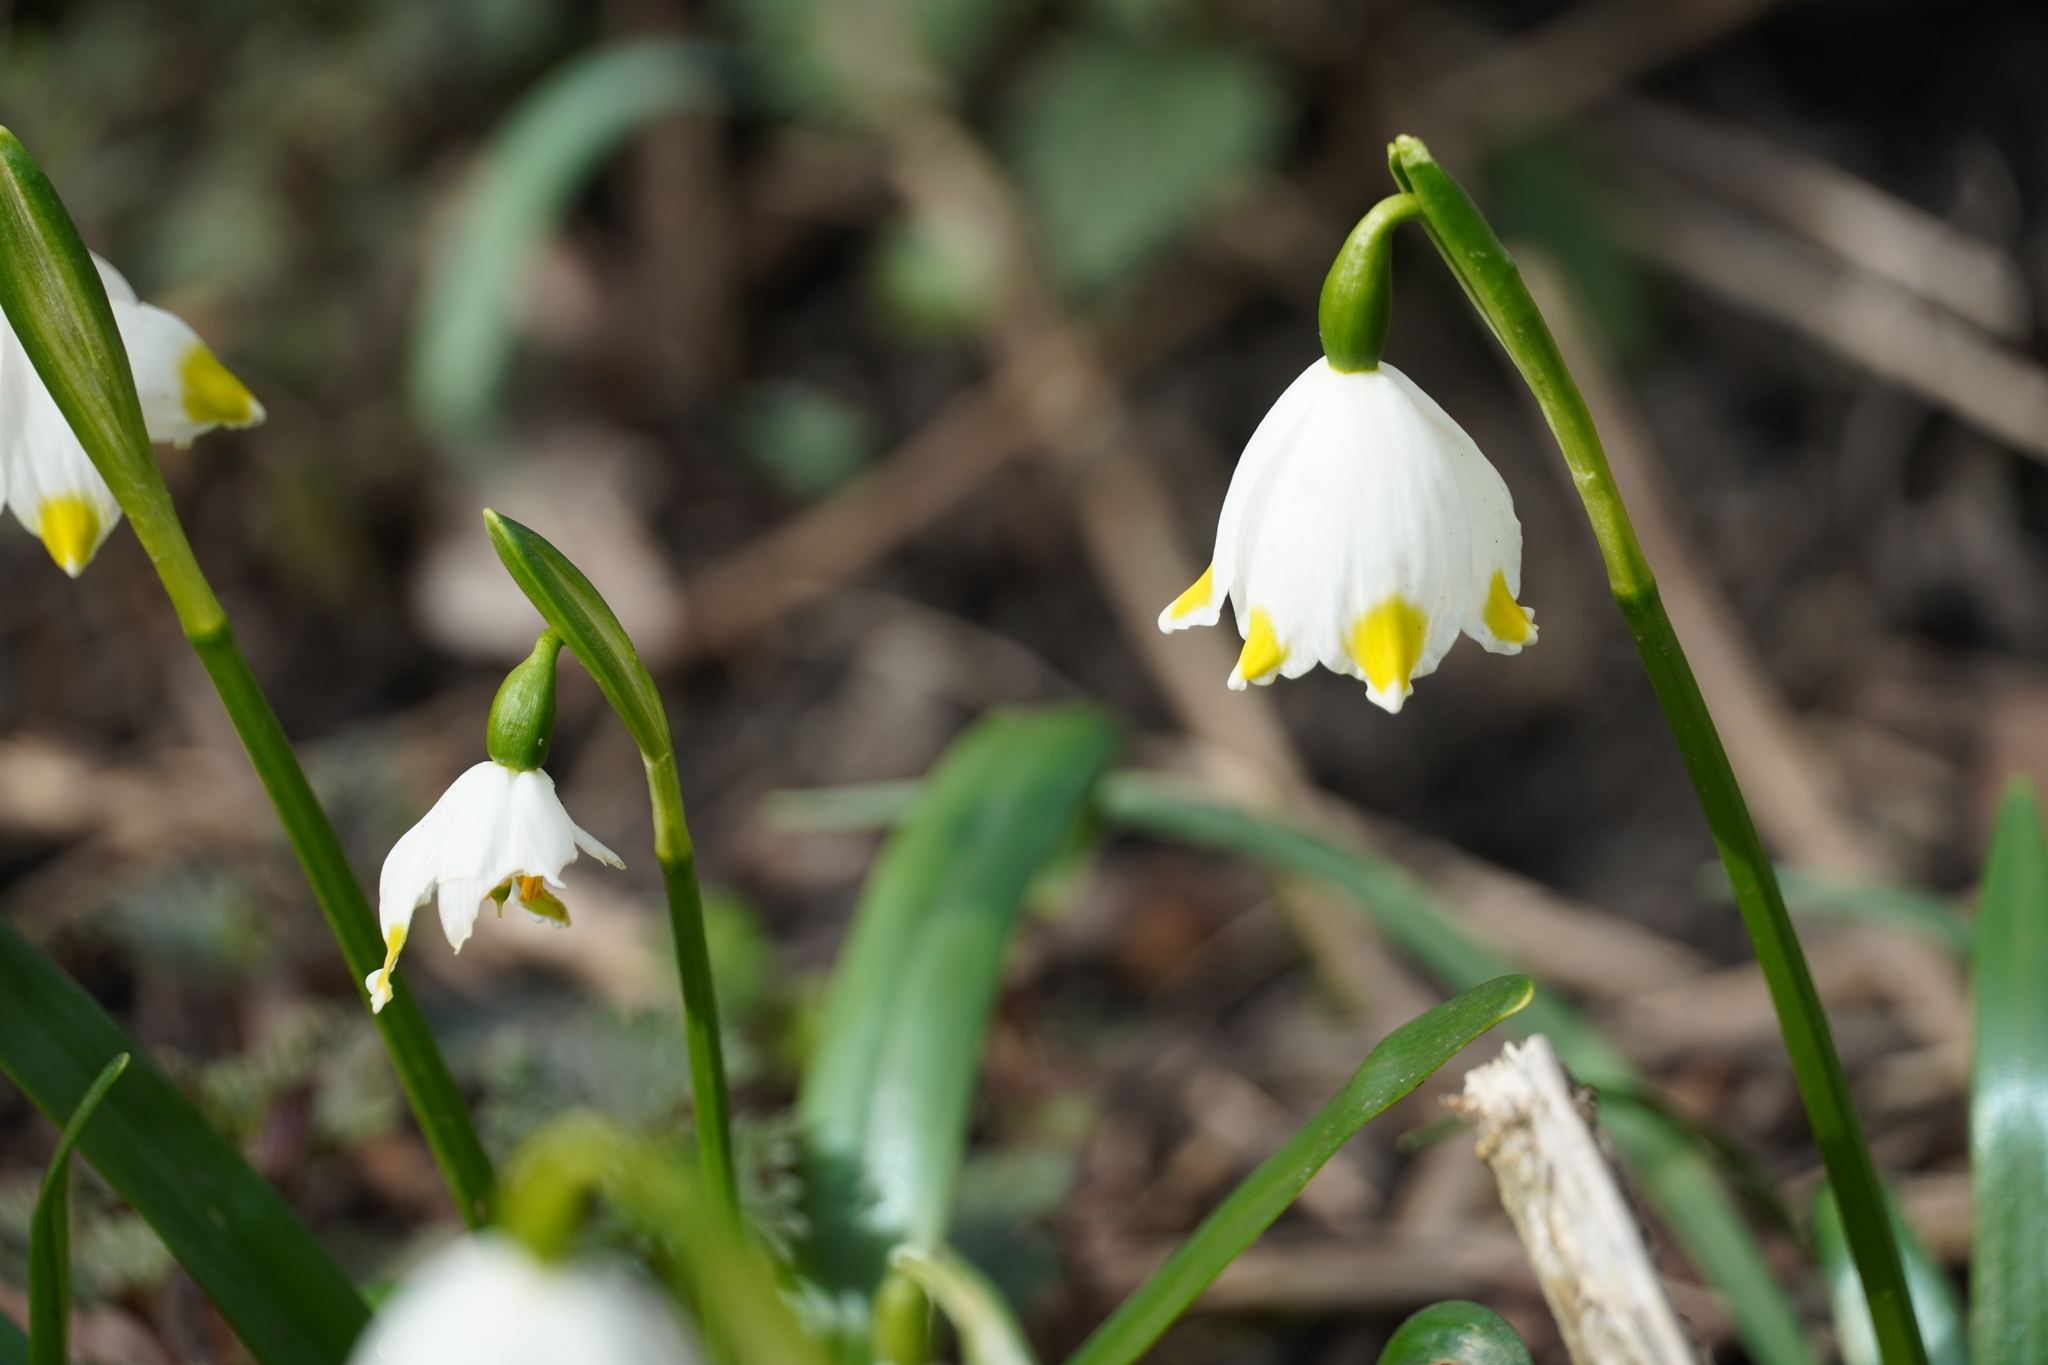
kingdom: Plantae
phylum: Tracheophyta
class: Liliopsida
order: Asparagales
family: Amaryllidaceae
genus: Leucojum
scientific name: Leucojum vernum
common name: Spring snowflake
